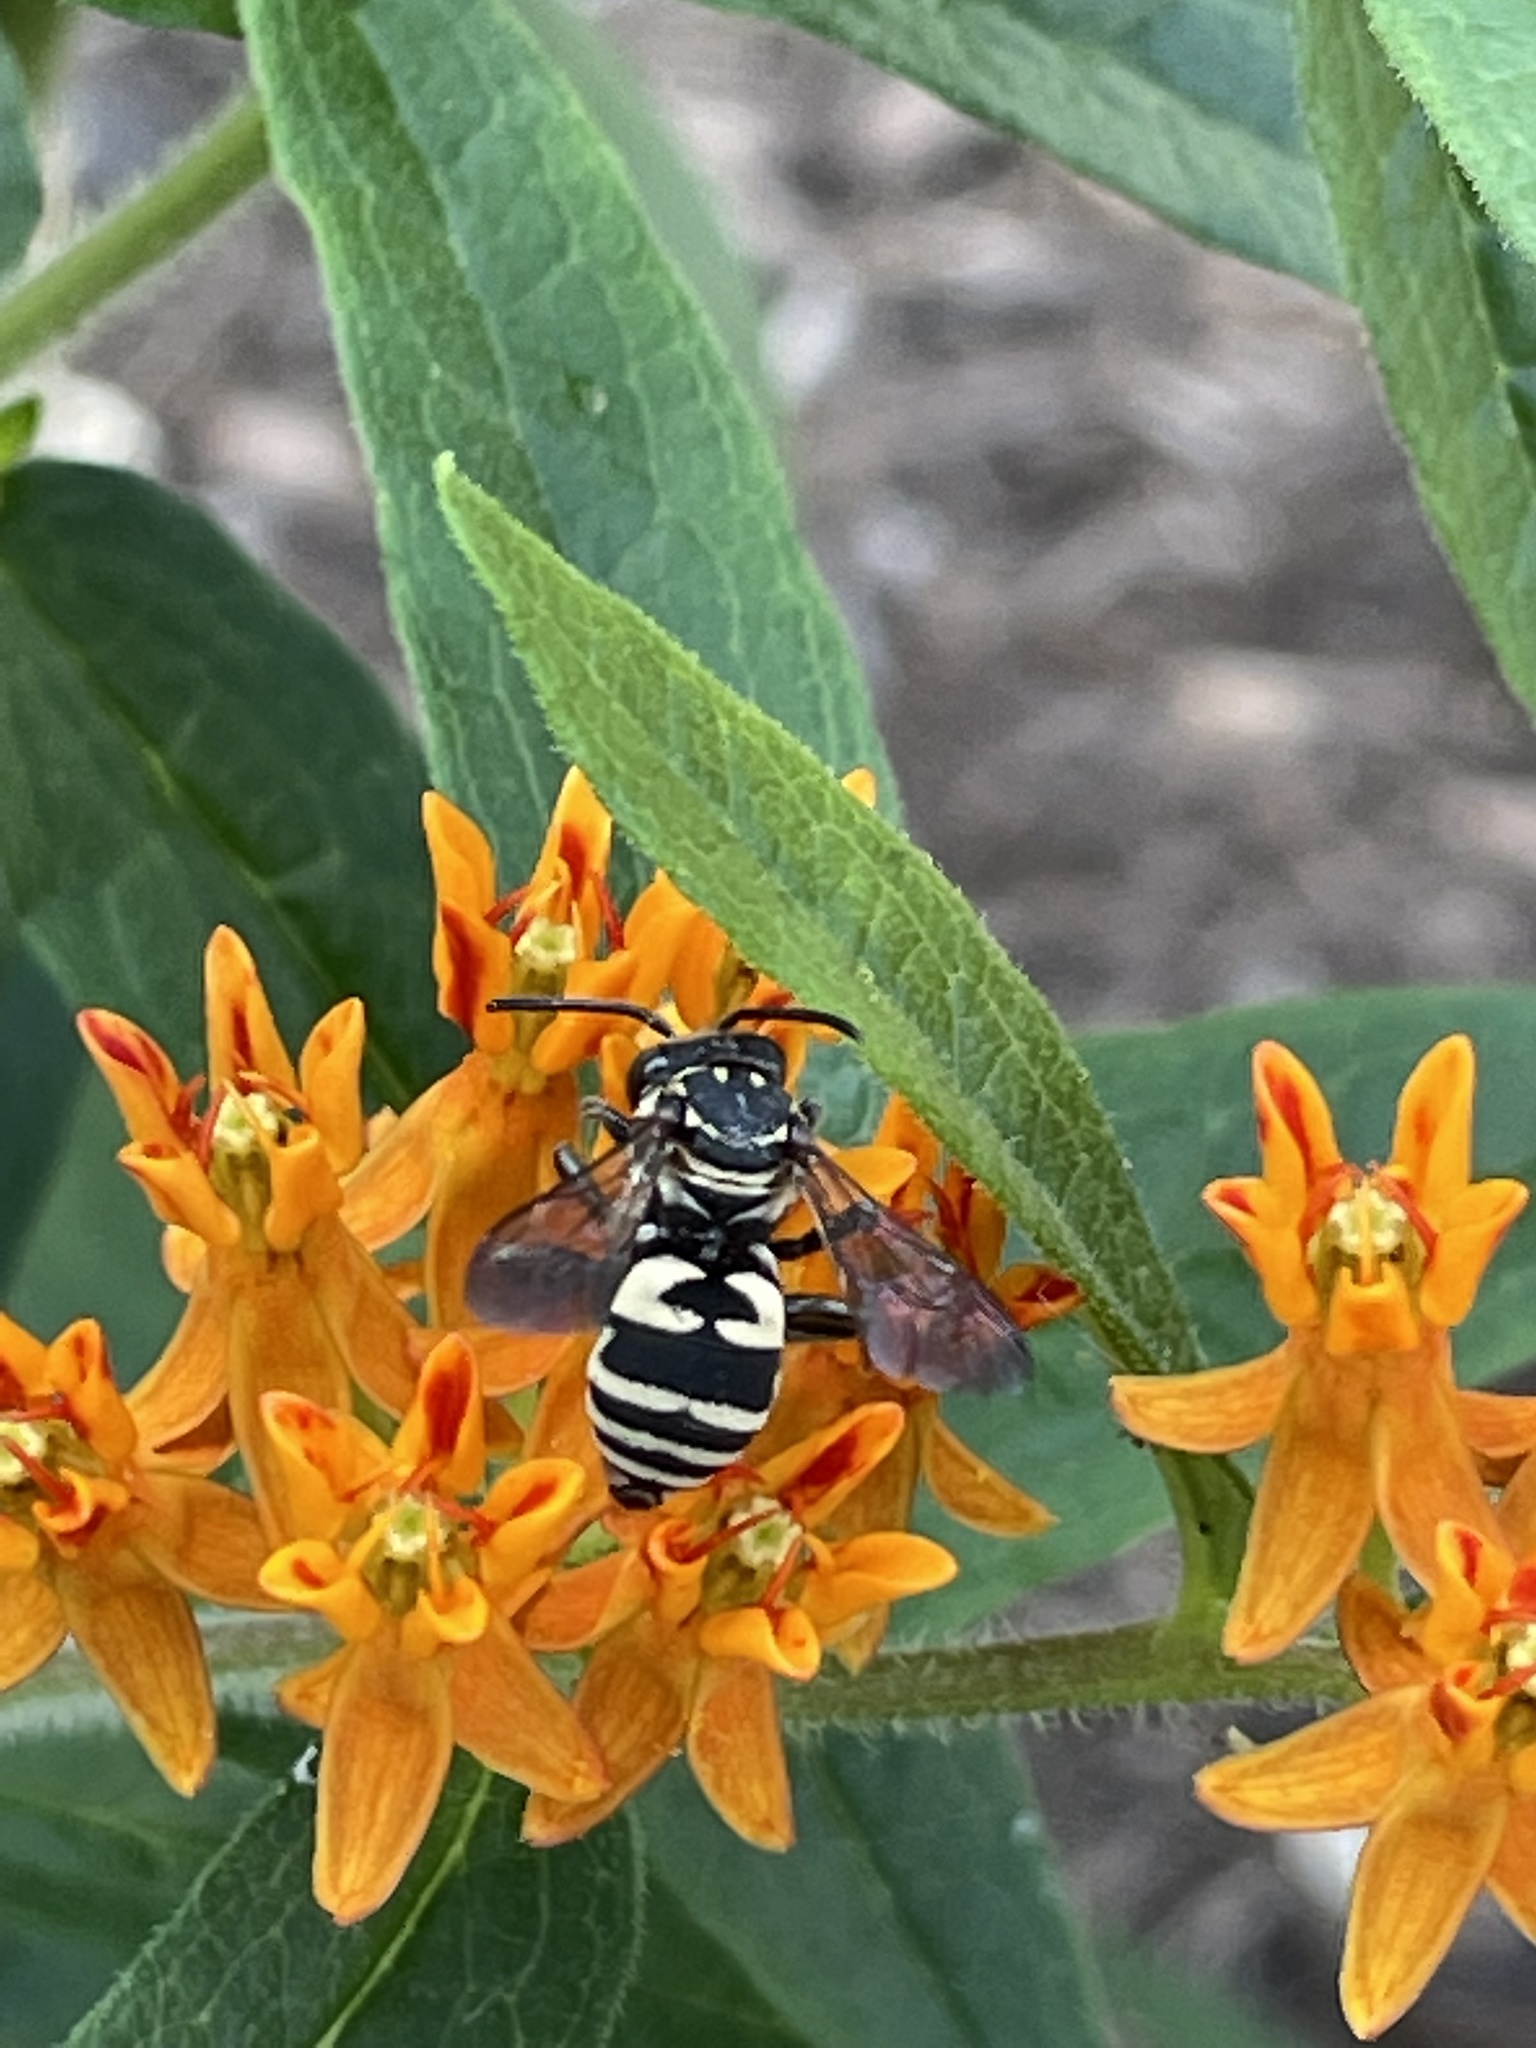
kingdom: Animalia
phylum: Arthropoda
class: Insecta
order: Hymenoptera
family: Apidae
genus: Triepeolus
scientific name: Triepeolus lunatus
